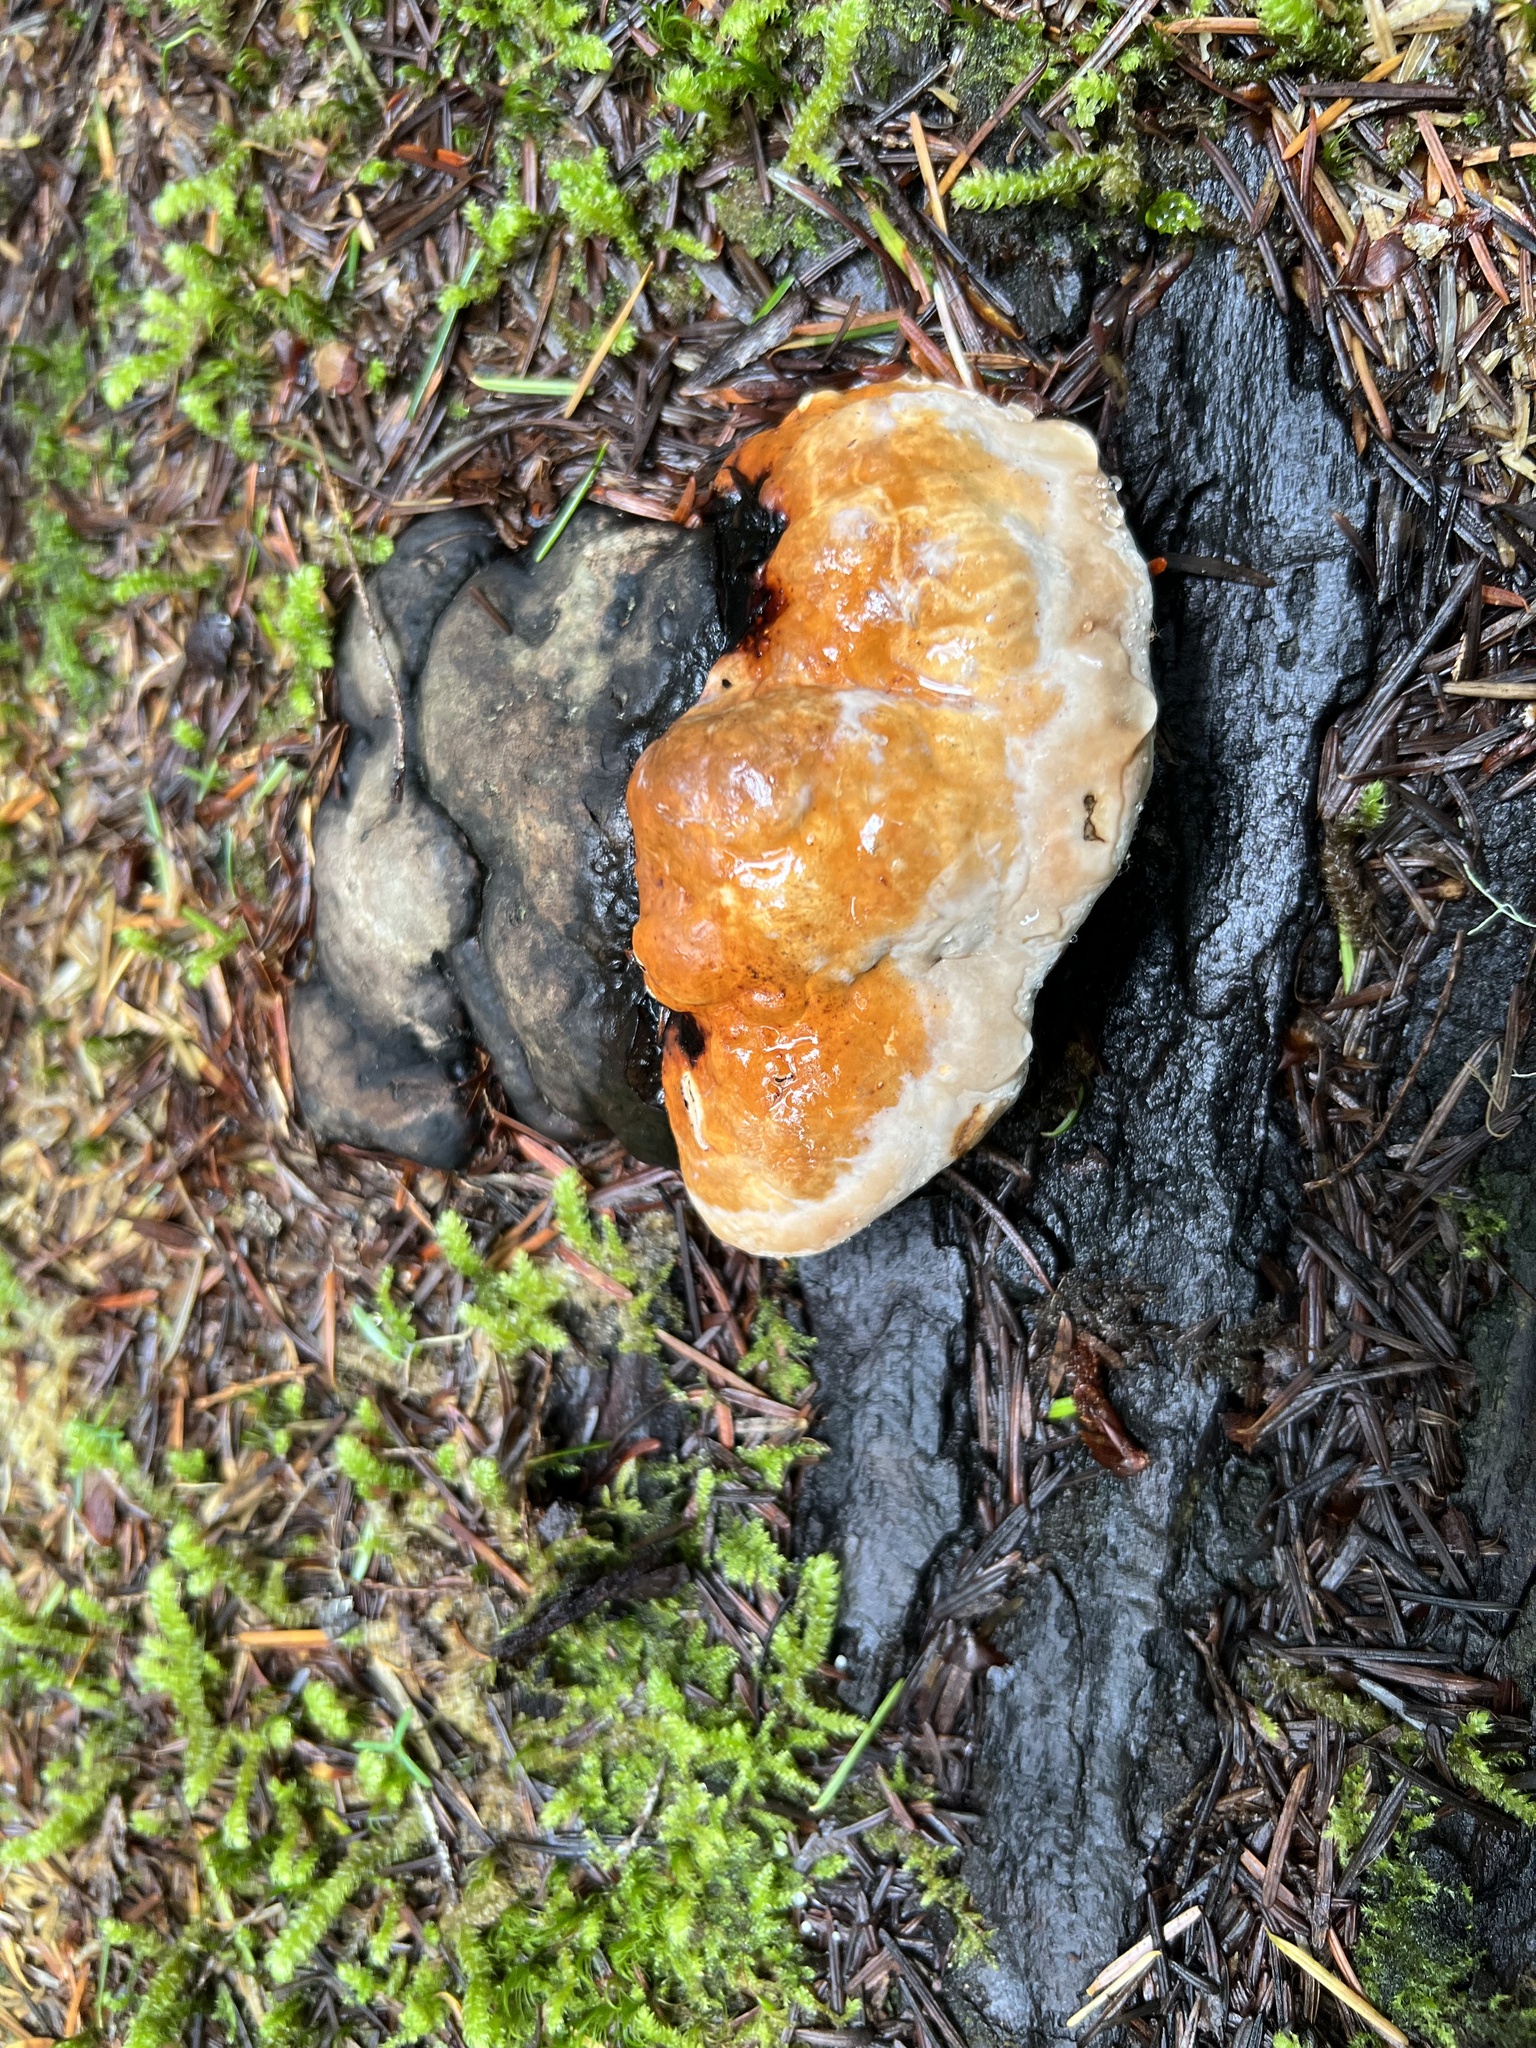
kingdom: Fungi
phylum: Basidiomycota
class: Agaricomycetes
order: Polyporales
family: Fomitopsidaceae
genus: Fomitopsis
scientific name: Fomitopsis mounceae
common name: Northern red belt
